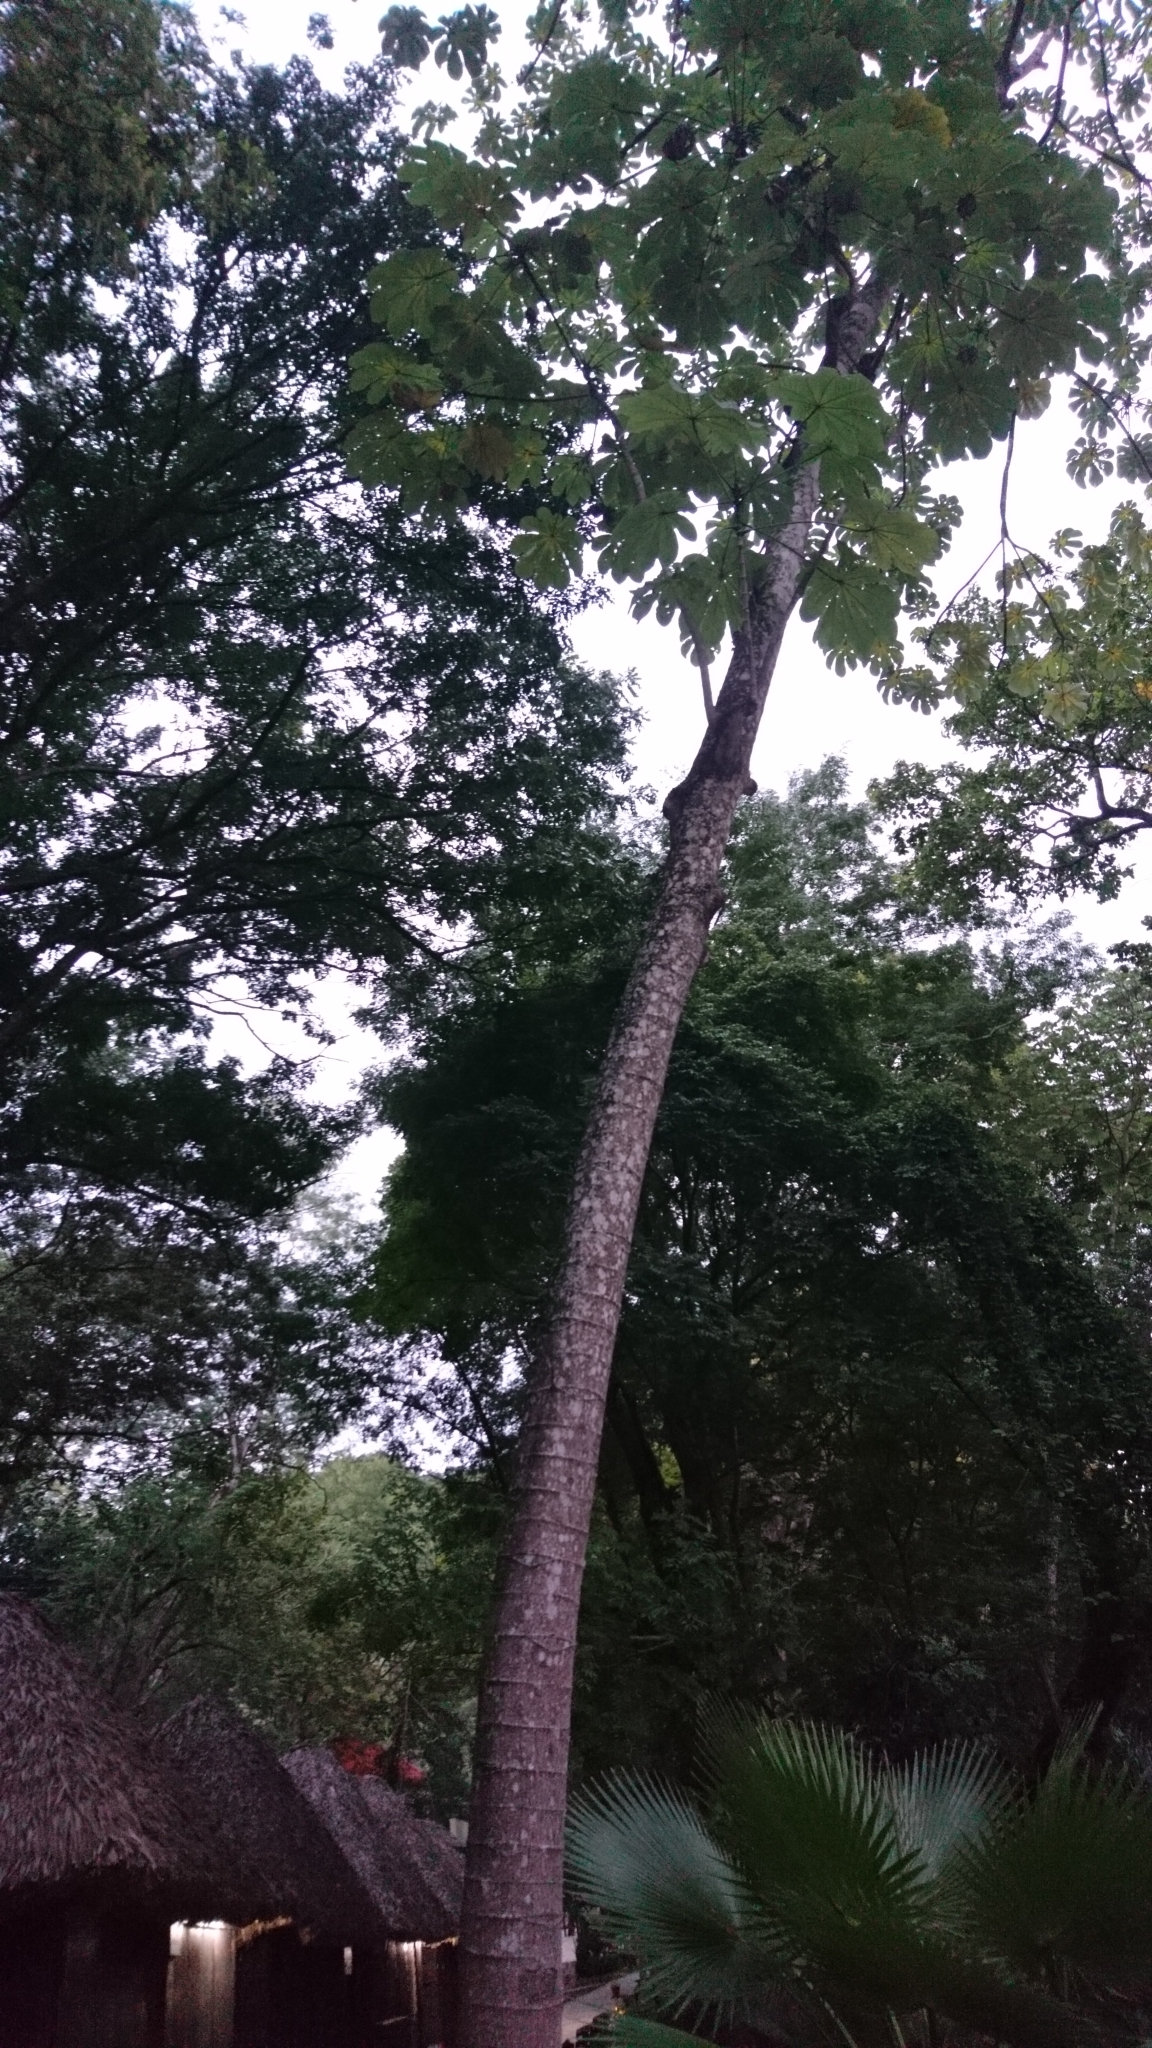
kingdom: Plantae
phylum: Tracheophyta
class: Magnoliopsida
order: Rosales
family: Urticaceae
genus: Cecropia
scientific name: Cecropia obtusifolia
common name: Trumpet tree
